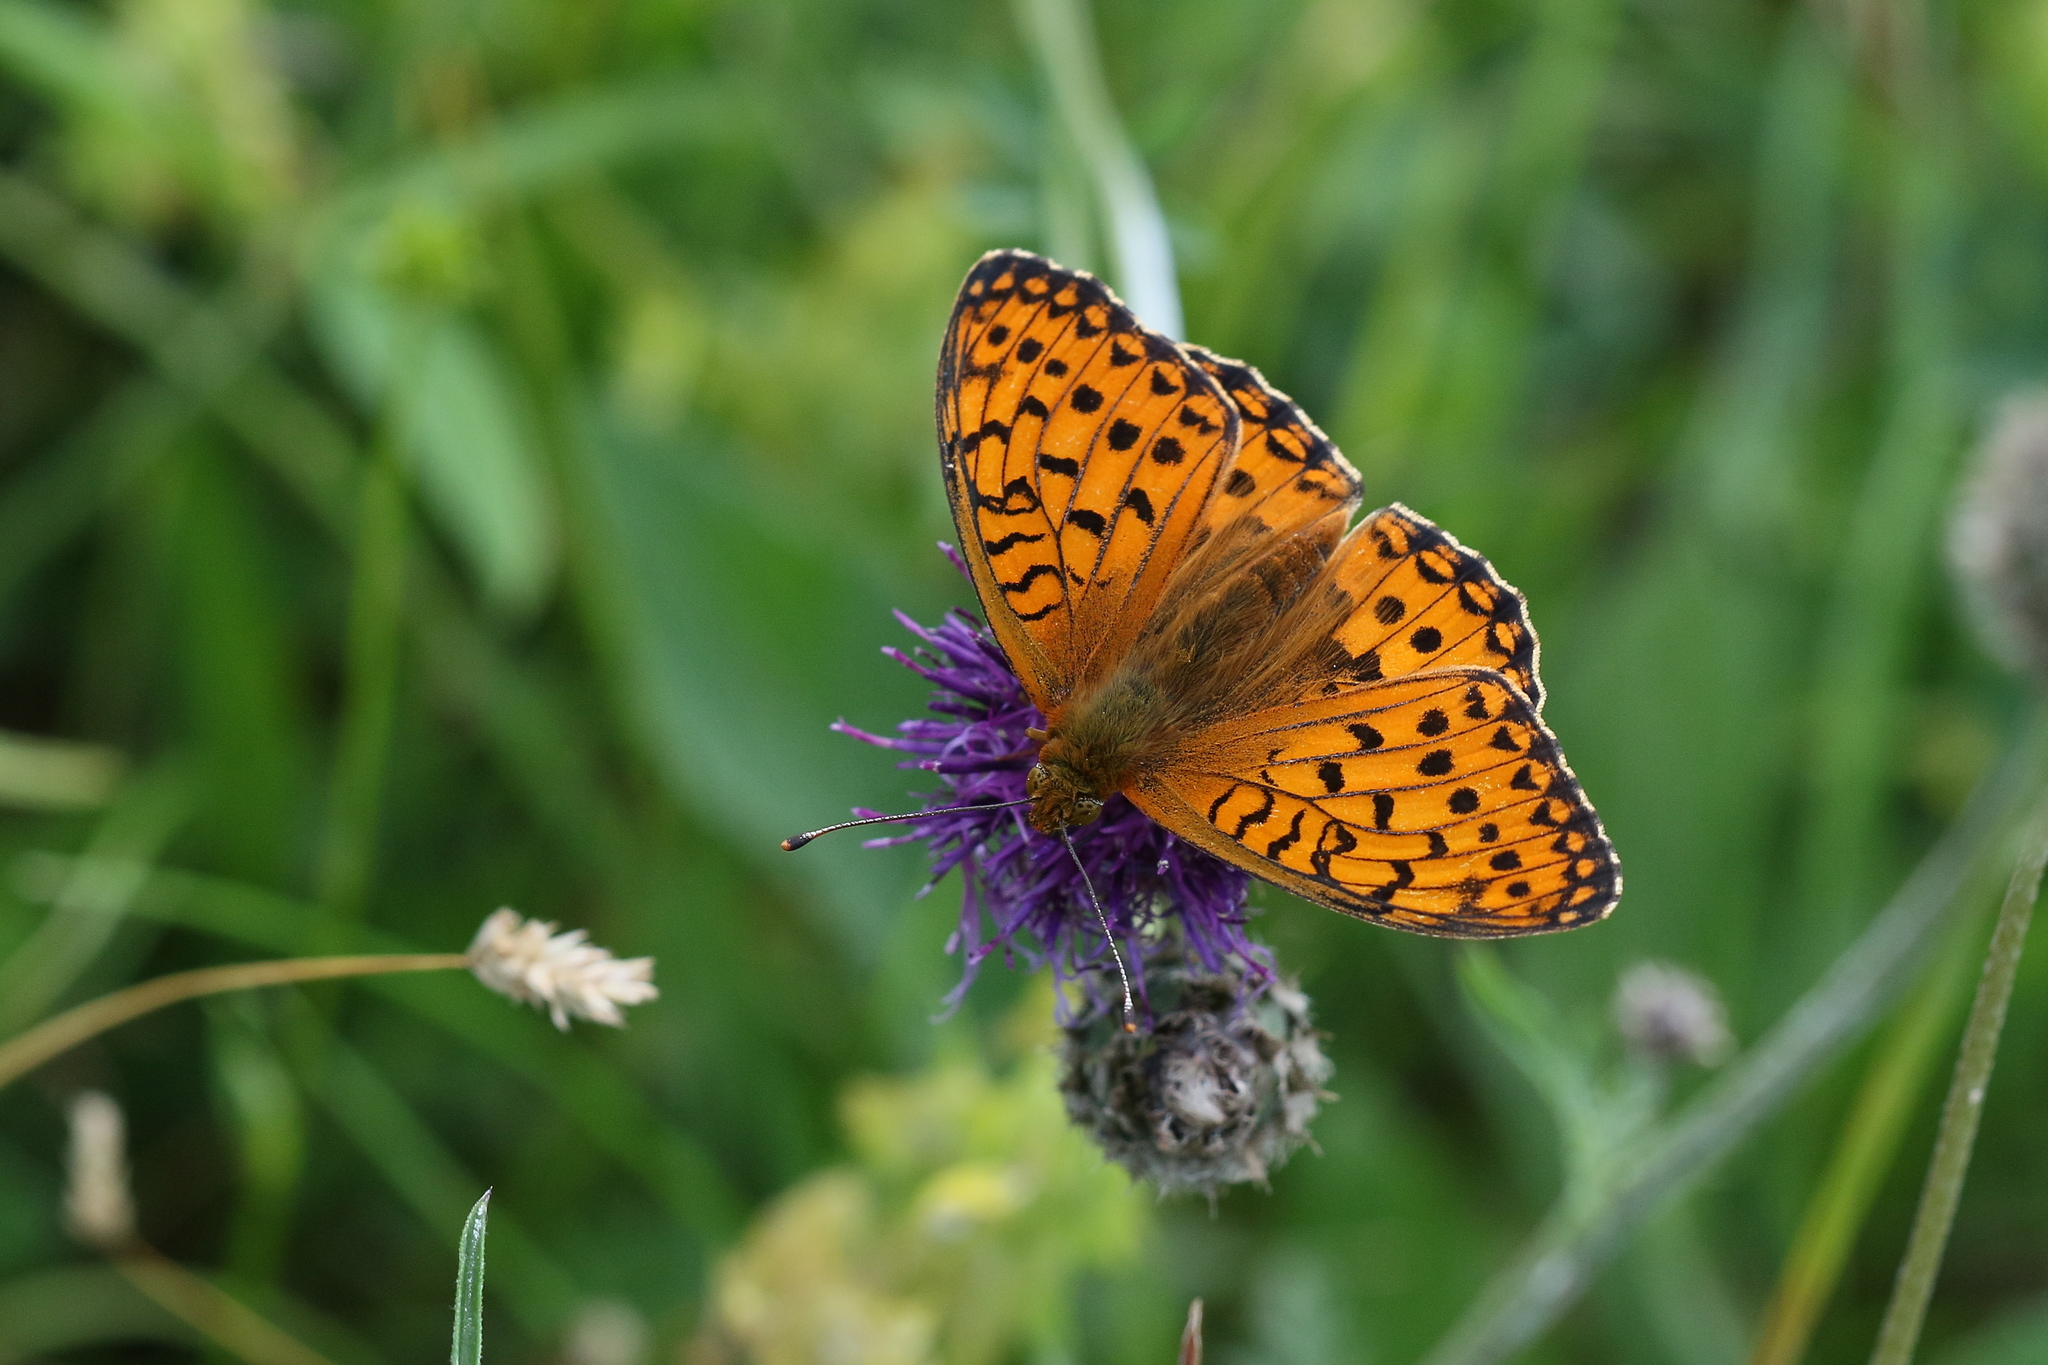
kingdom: Animalia
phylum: Arthropoda
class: Insecta
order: Lepidoptera
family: Nymphalidae
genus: Speyeria
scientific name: Speyeria aglaja
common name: Dark green fritillary
